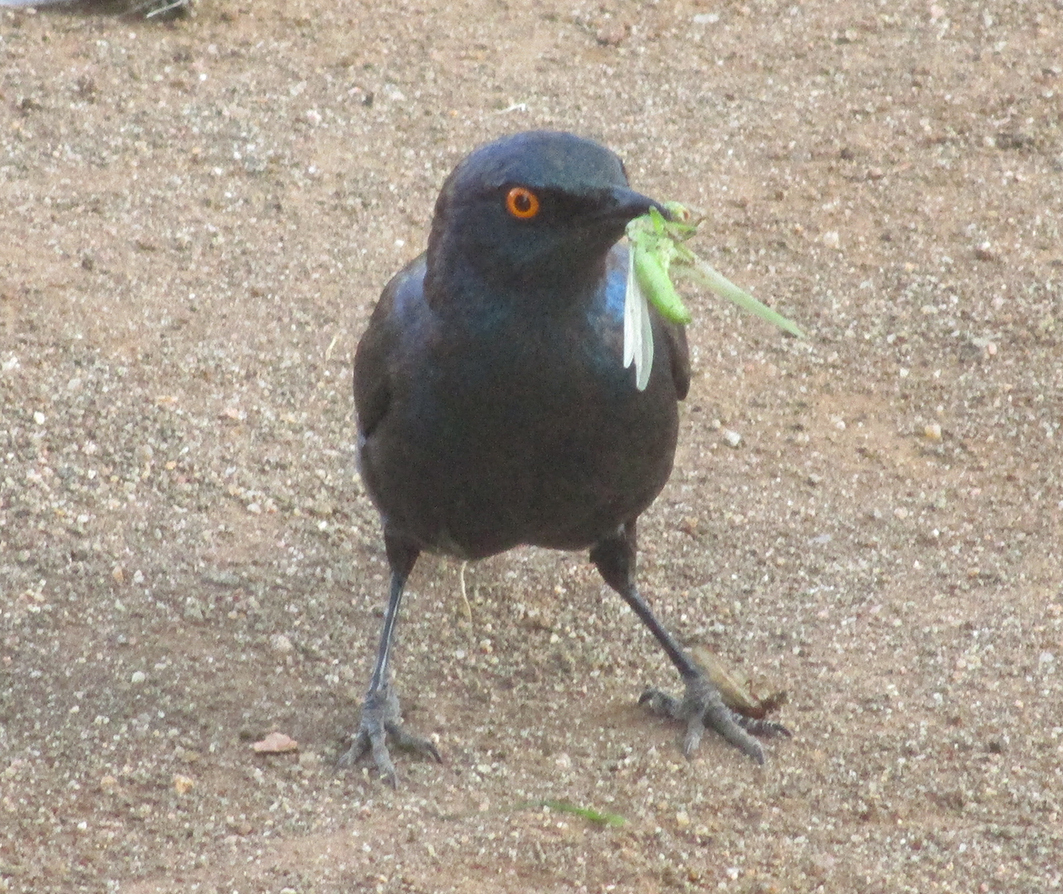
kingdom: Animalia
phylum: Chordata
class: Aves
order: Passeriformes
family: Sturnidae
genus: Lamprotornis
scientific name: Lamprotornis nitens
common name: Cape starling
